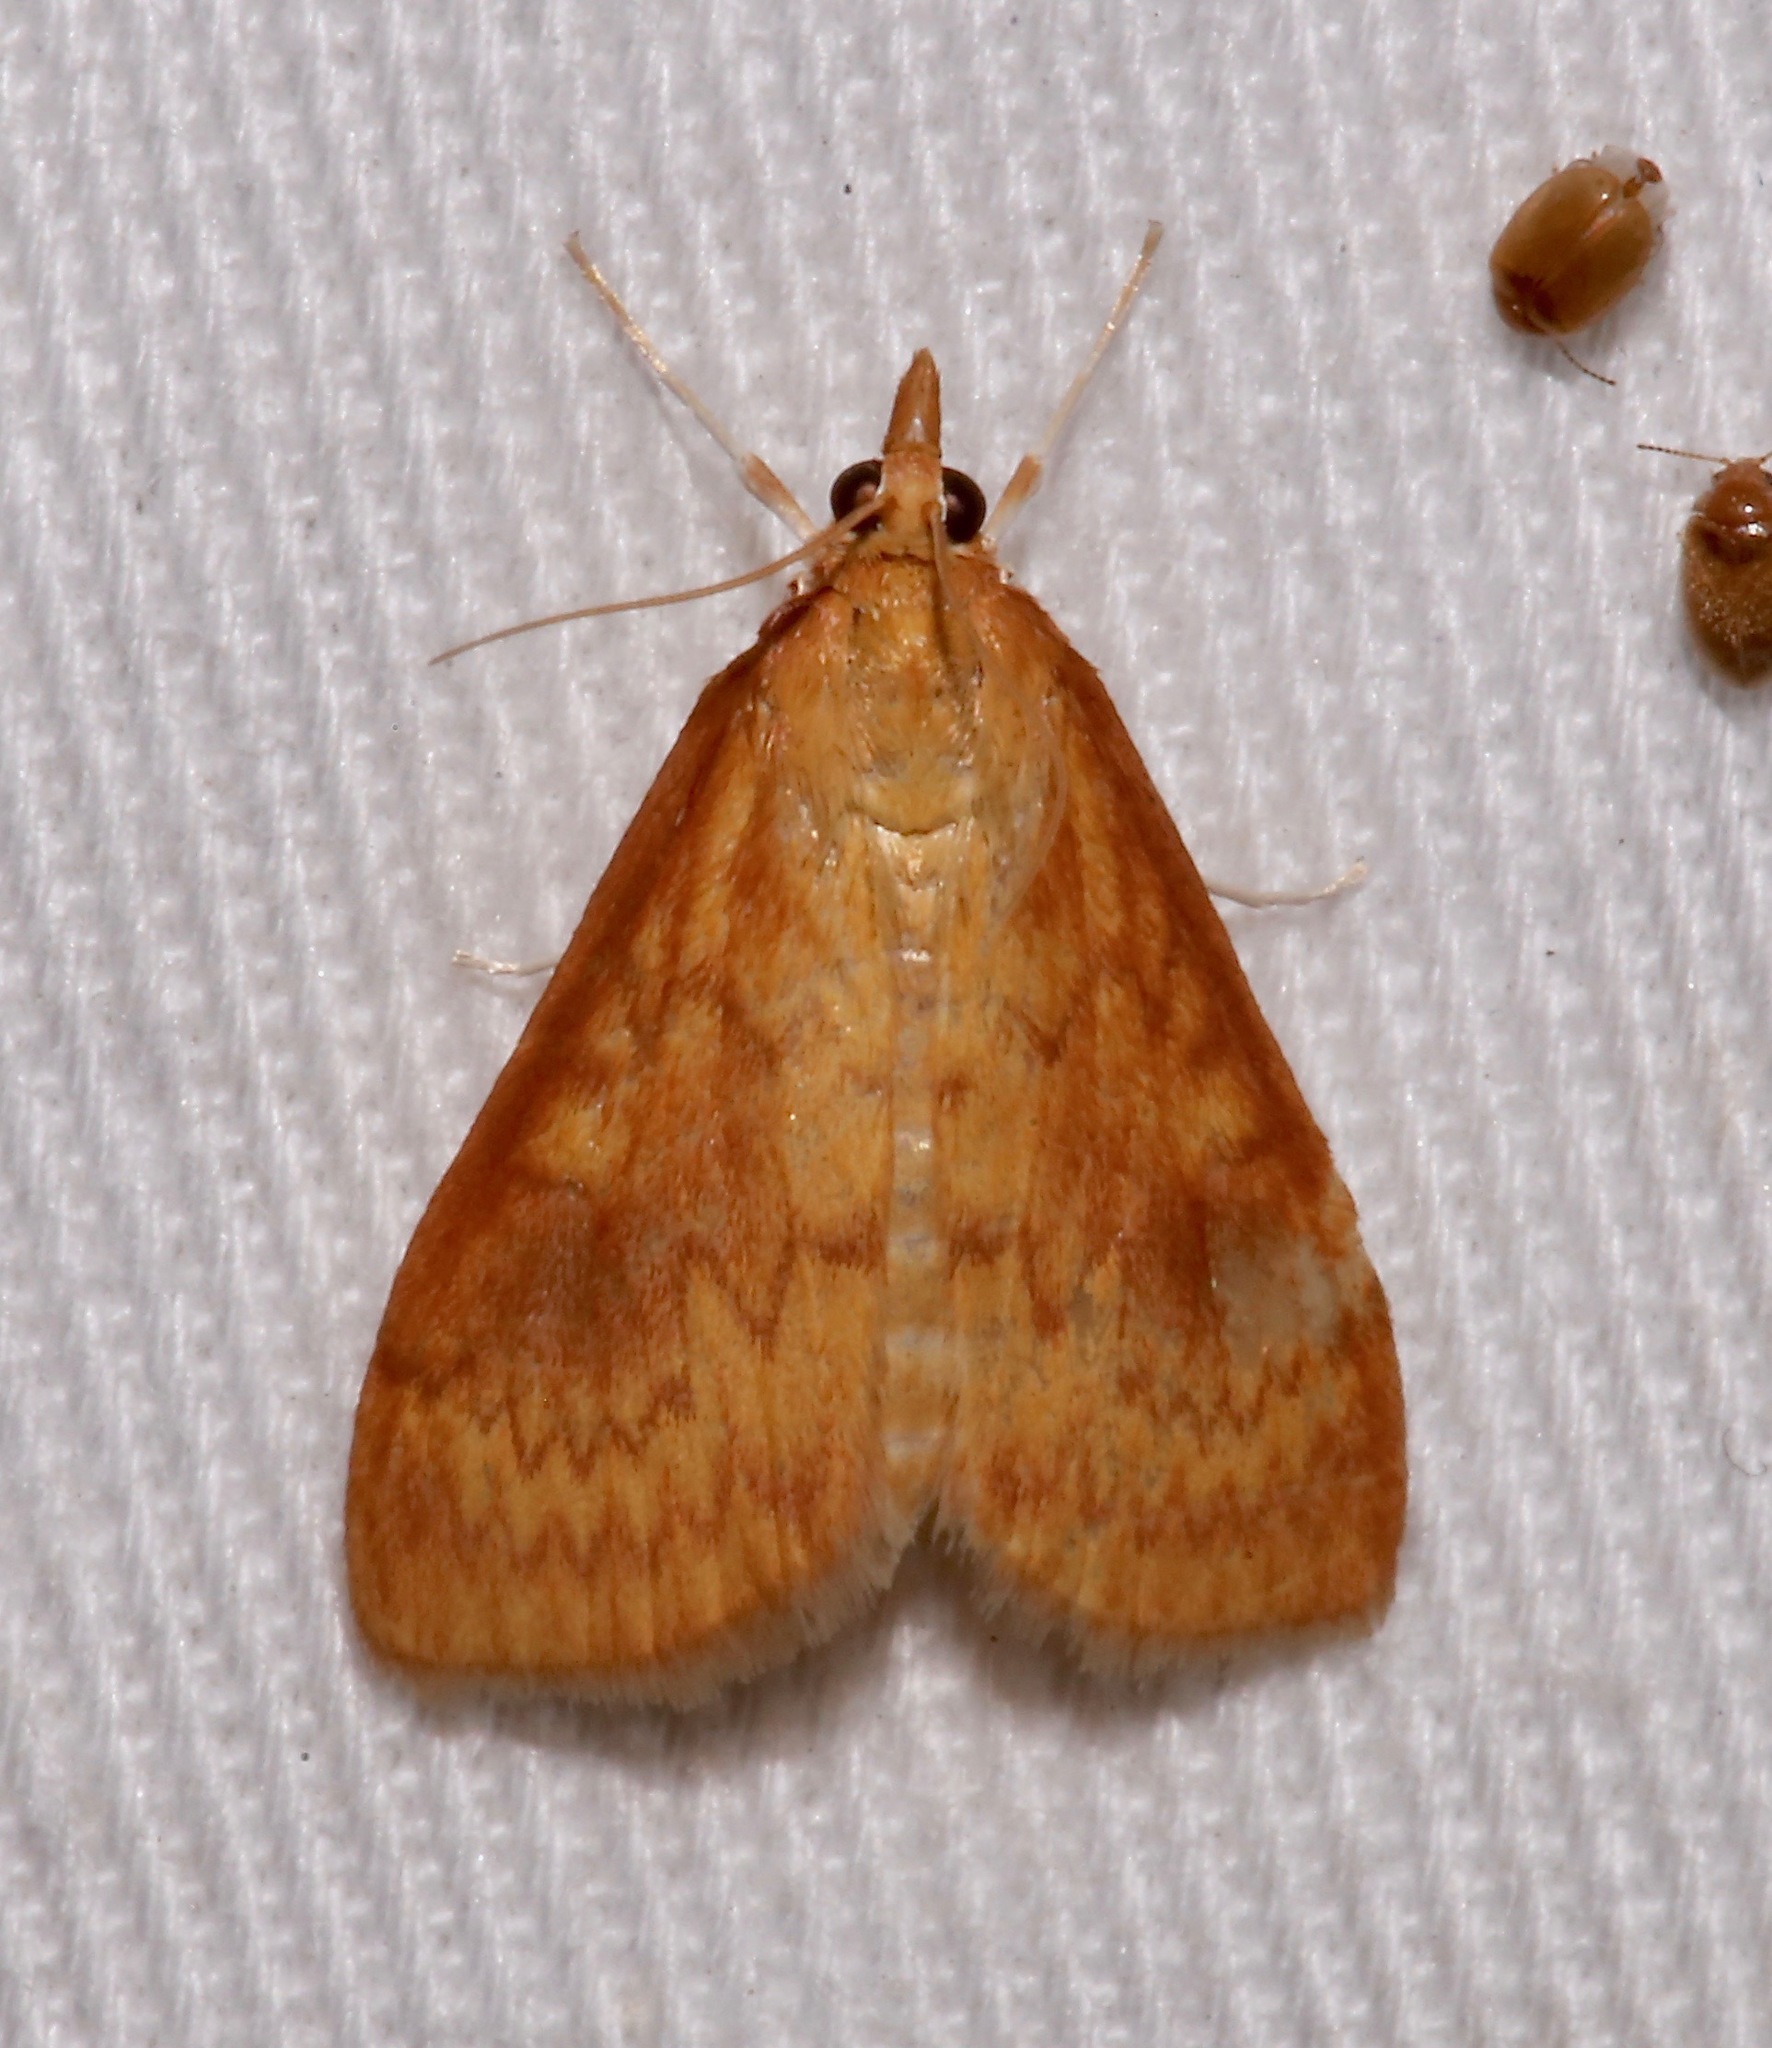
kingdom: Animalia
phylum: Arthropoda
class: Insecta
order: Lepidoptera
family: Crambidae
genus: Ostrinia
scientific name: Ostrinia penitalis
